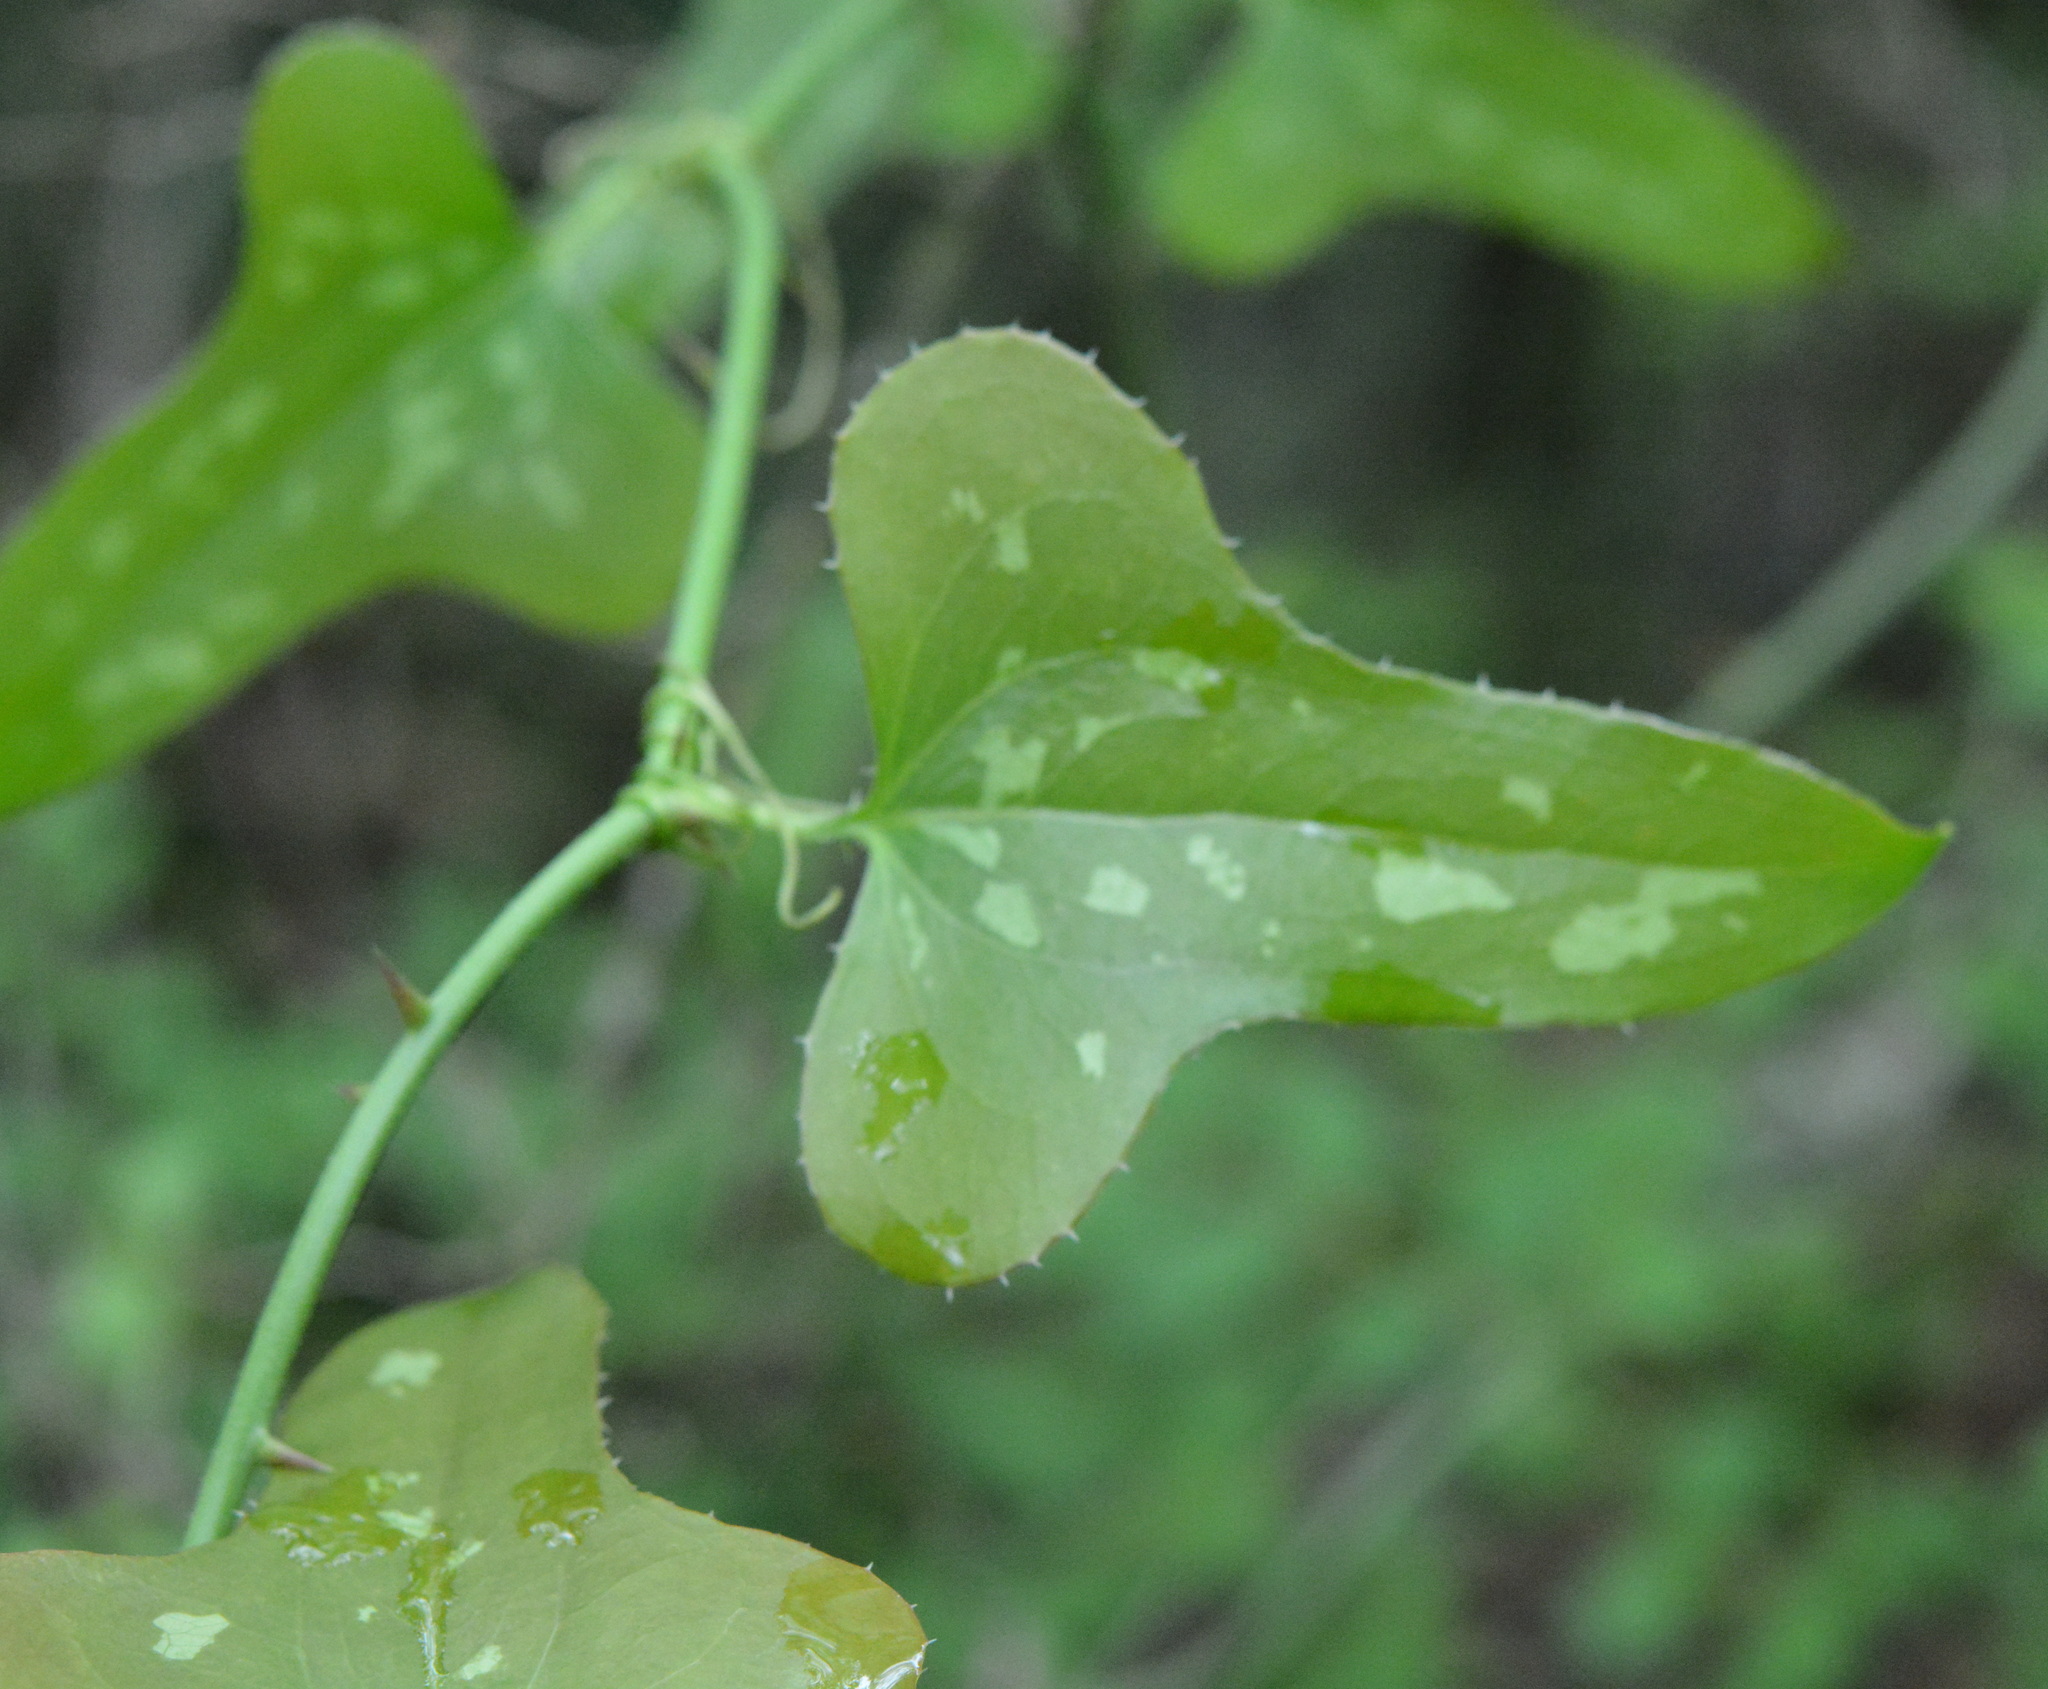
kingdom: Plantae
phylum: Tracheophyta
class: Liliopsida
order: Liliales
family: Smilacaceae
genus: Smilax
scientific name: Smilax bona-nox
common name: Catbrier
